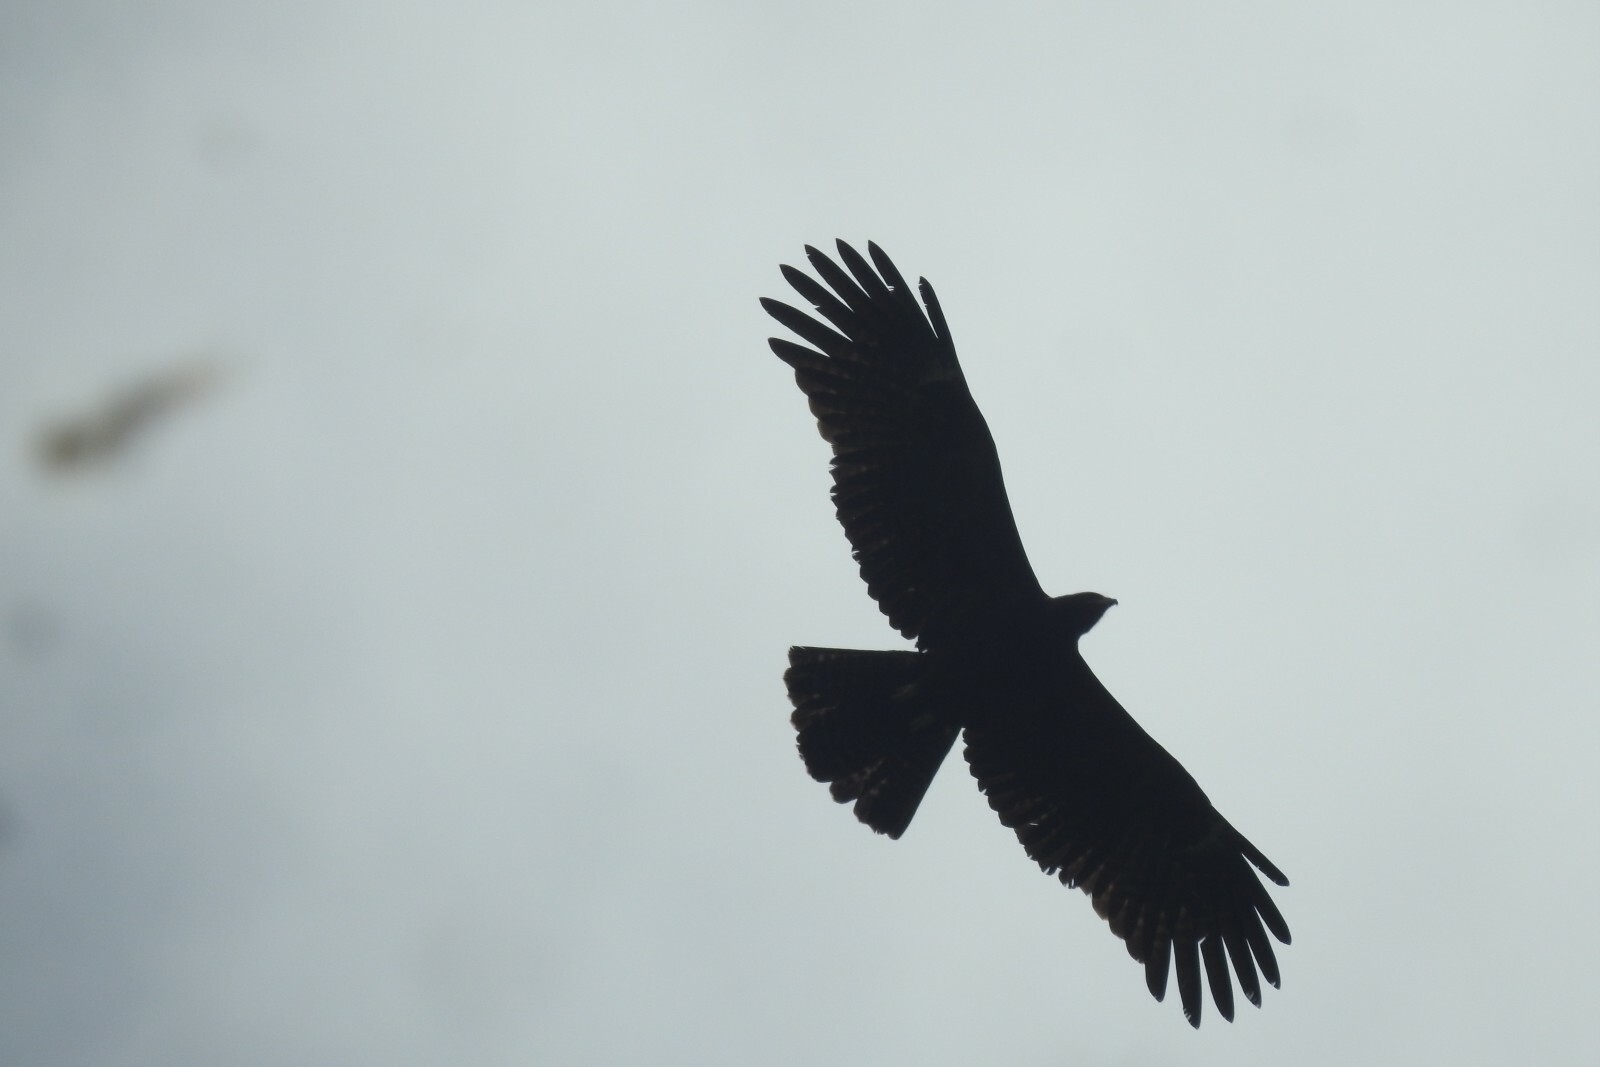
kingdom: Animalia
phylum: Chordata
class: Aves
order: Accipitriformes
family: Accipitridae
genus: Ictinaetus
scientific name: Ictinaetus malayensis
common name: Black eagle
